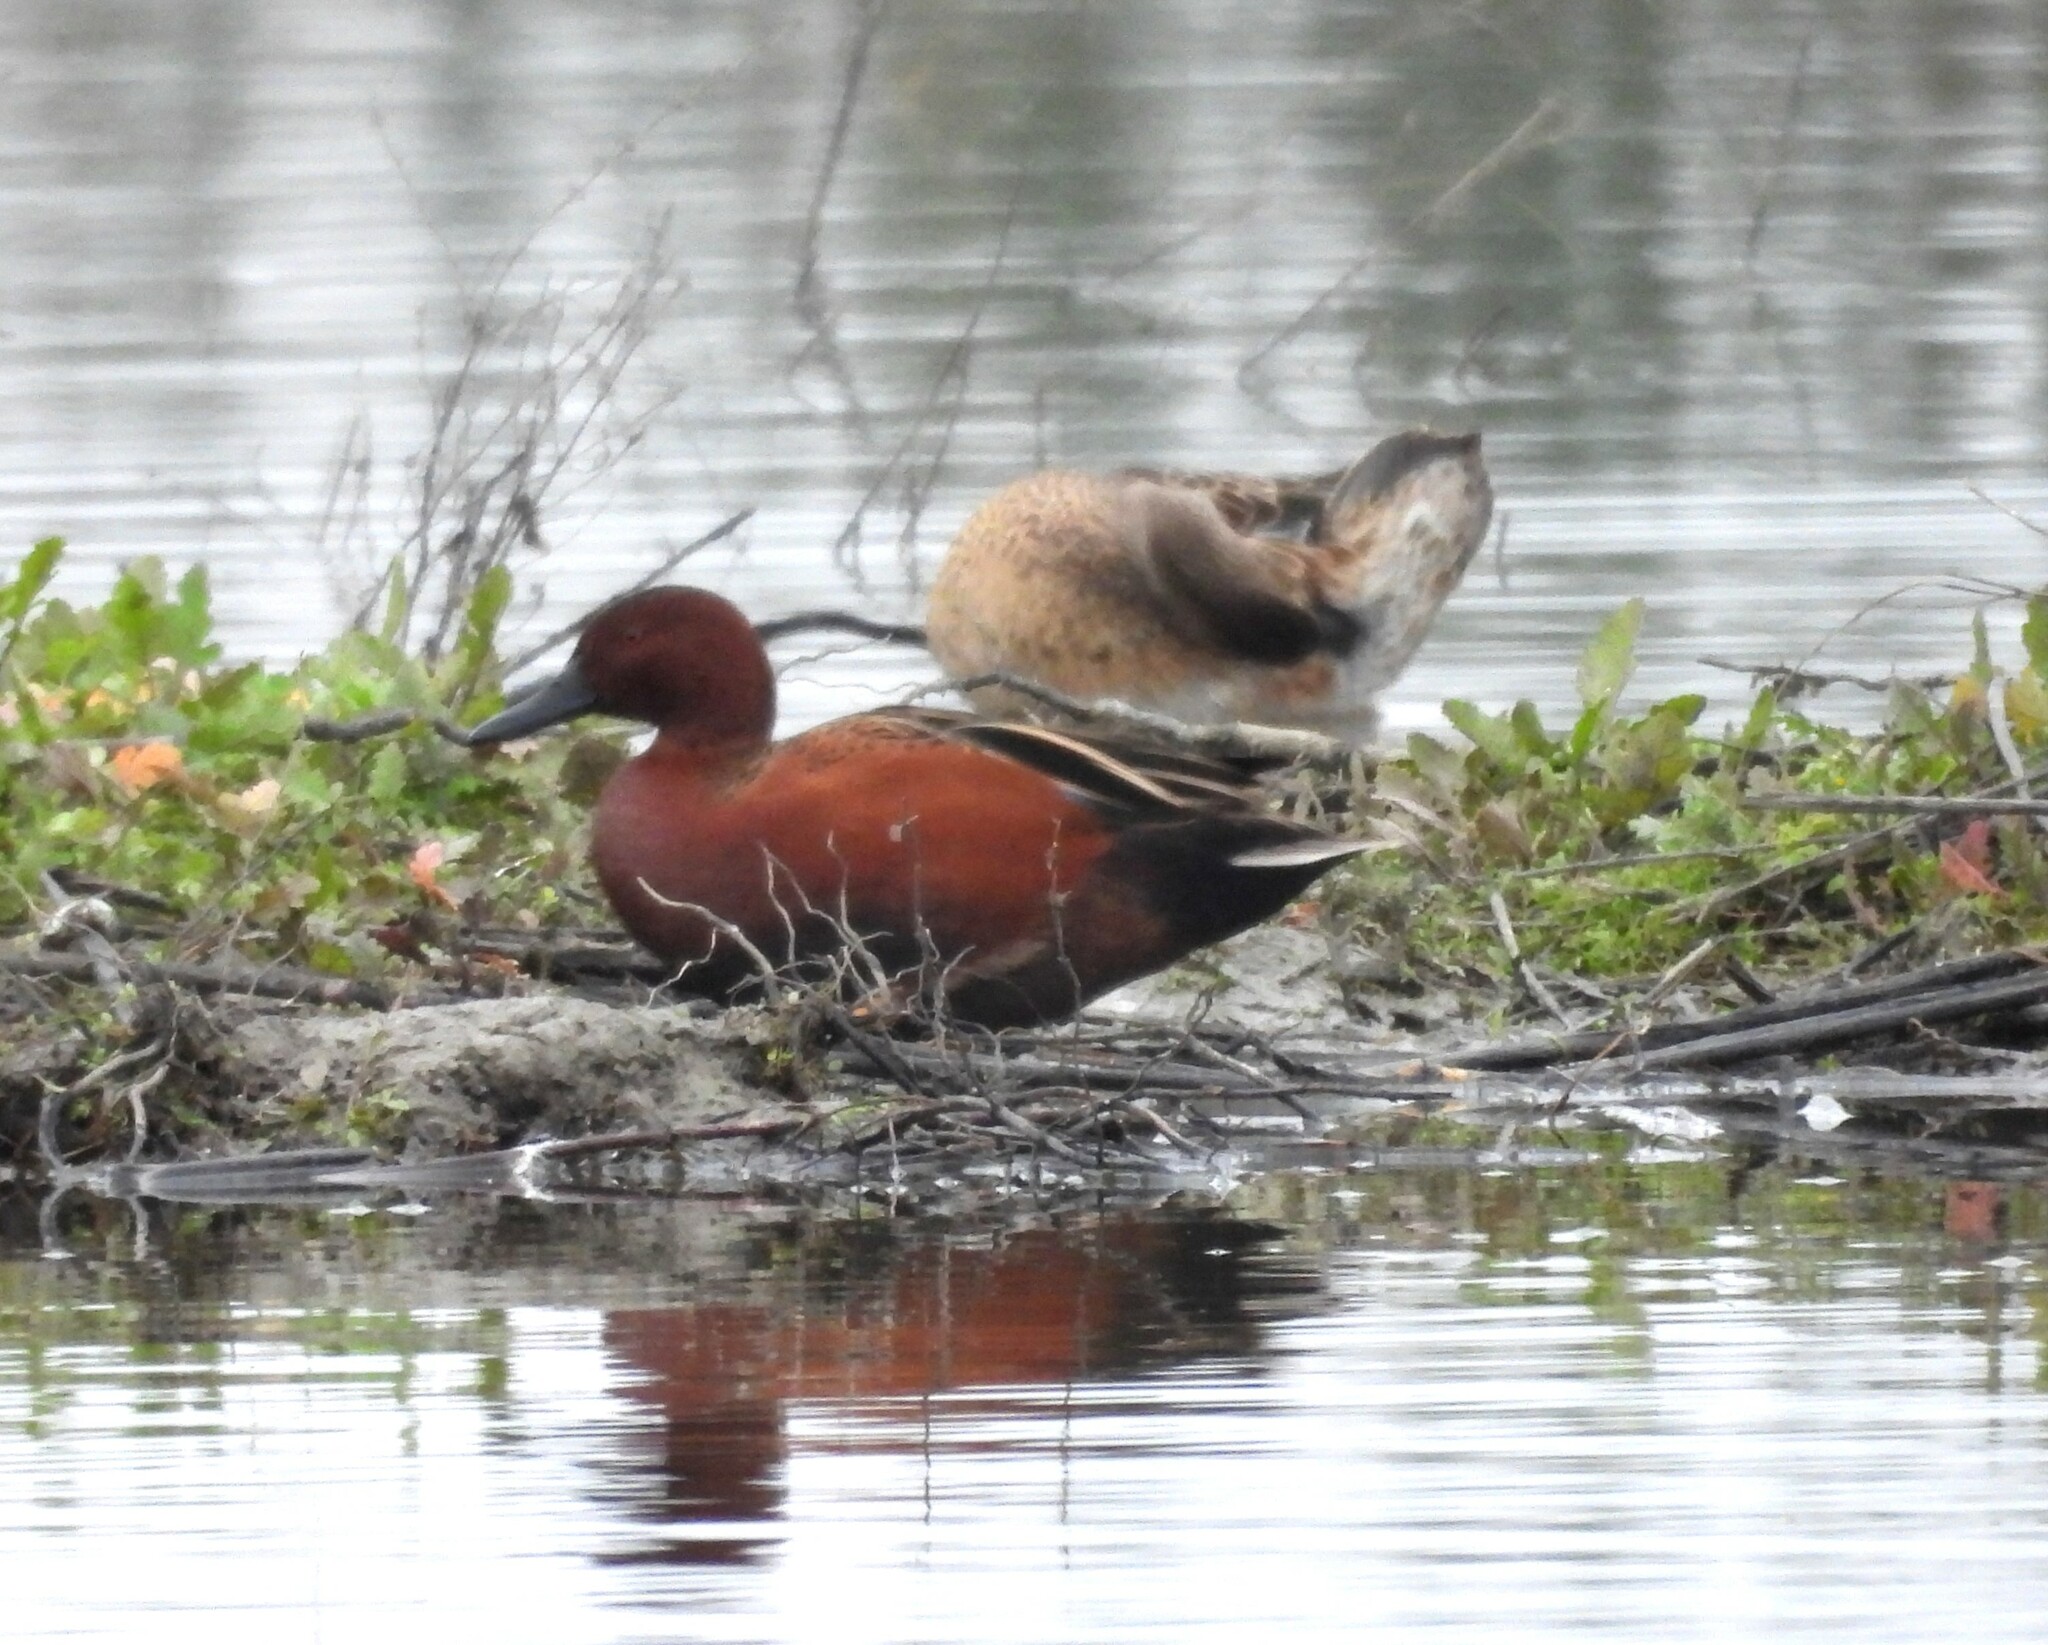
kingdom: Animalia
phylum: Chordata
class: Aves
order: Anseriformes
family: Anatidae
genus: Spatula
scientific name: Spatula cyanoptera
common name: Cinnamon teal
